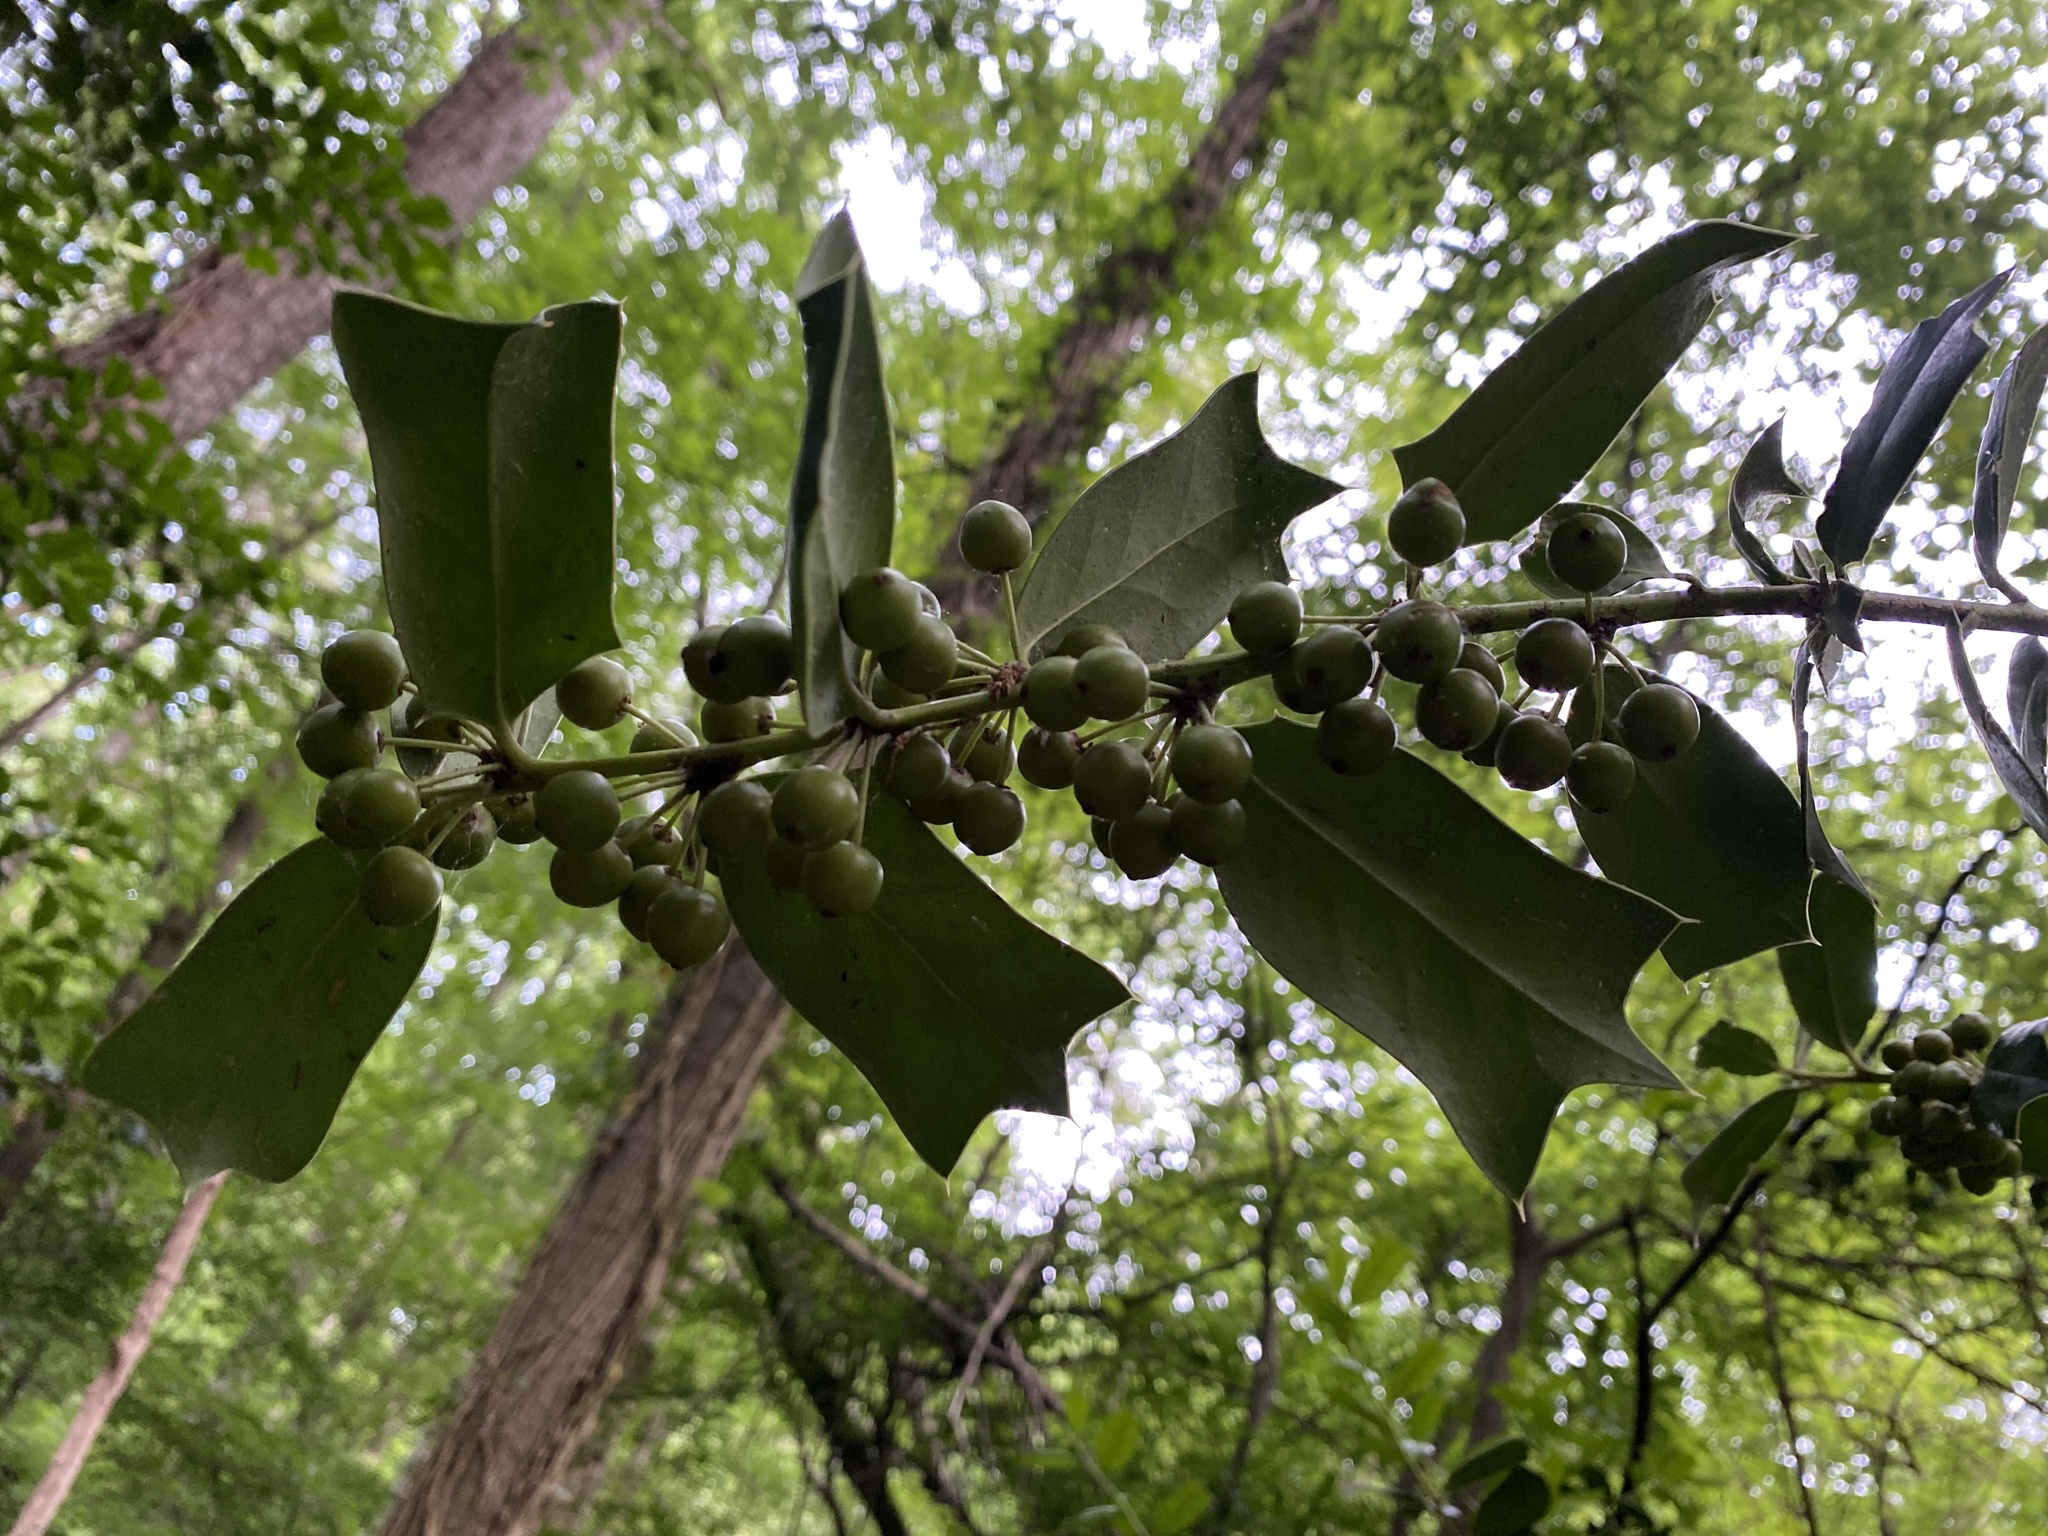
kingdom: Plantae
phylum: Tracheophyta
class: Magnoliopsida
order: Aquifoliales
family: Aquifoliaceae
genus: Ilex
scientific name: Ilex cornuta
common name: Chinese holly
